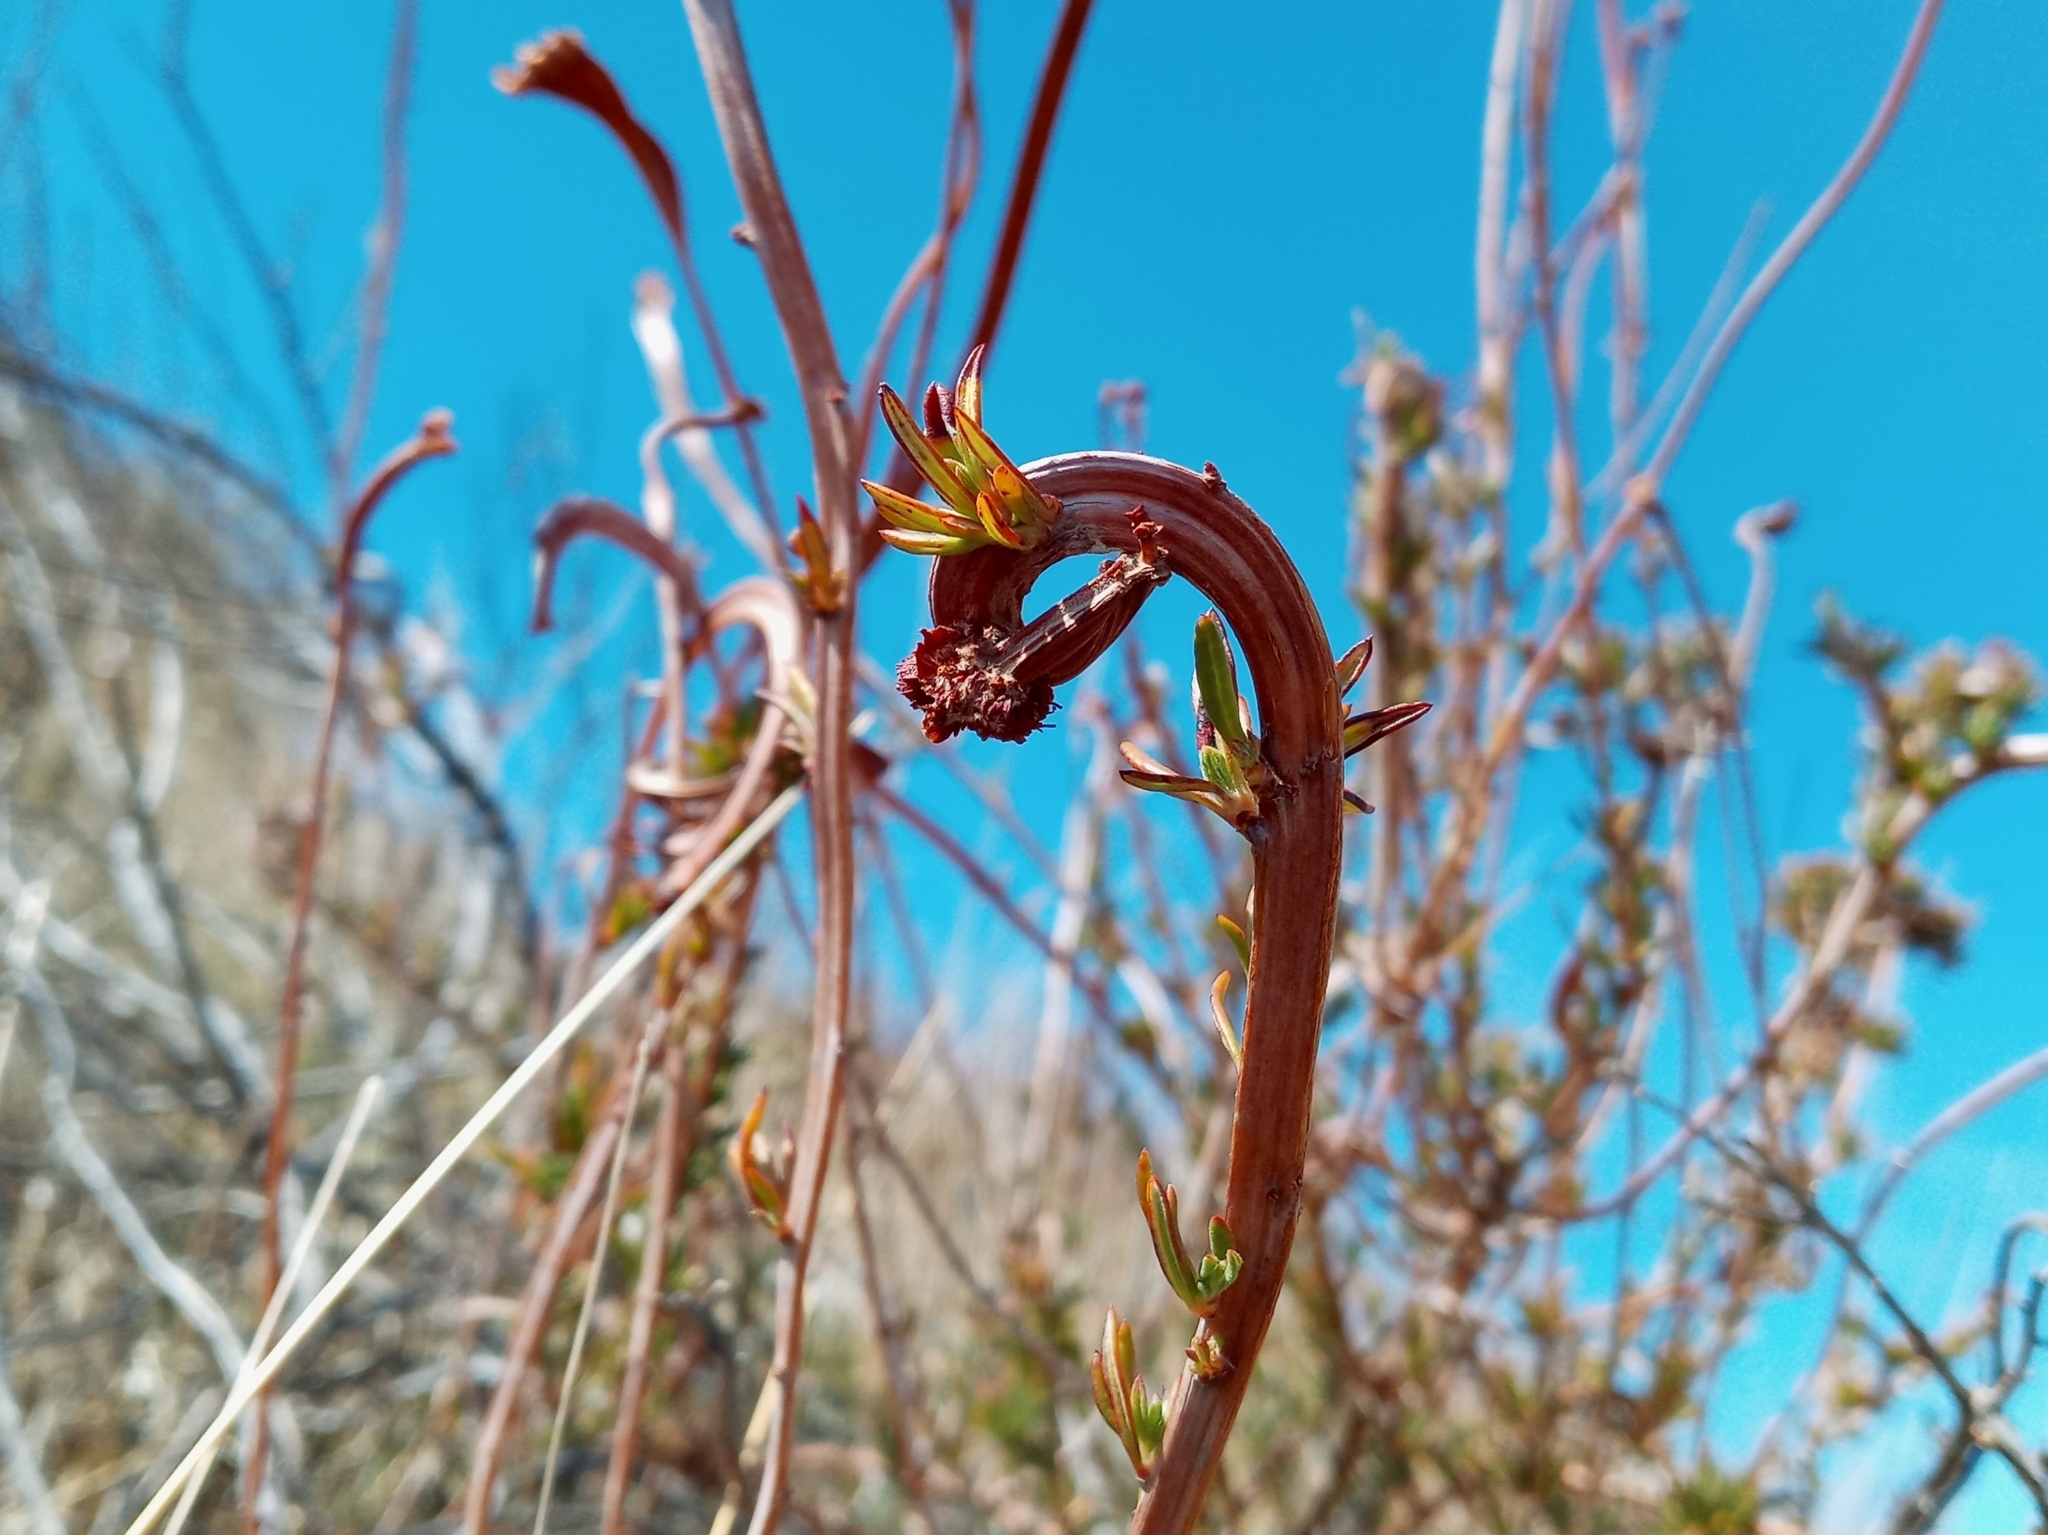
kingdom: Plantae
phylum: Tracheophyta
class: Magnoliopsida
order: Caryophyllales
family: Polygonaceae
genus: Eriogonum
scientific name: Eriogonum fasciculatum
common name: California wild buckwheat
